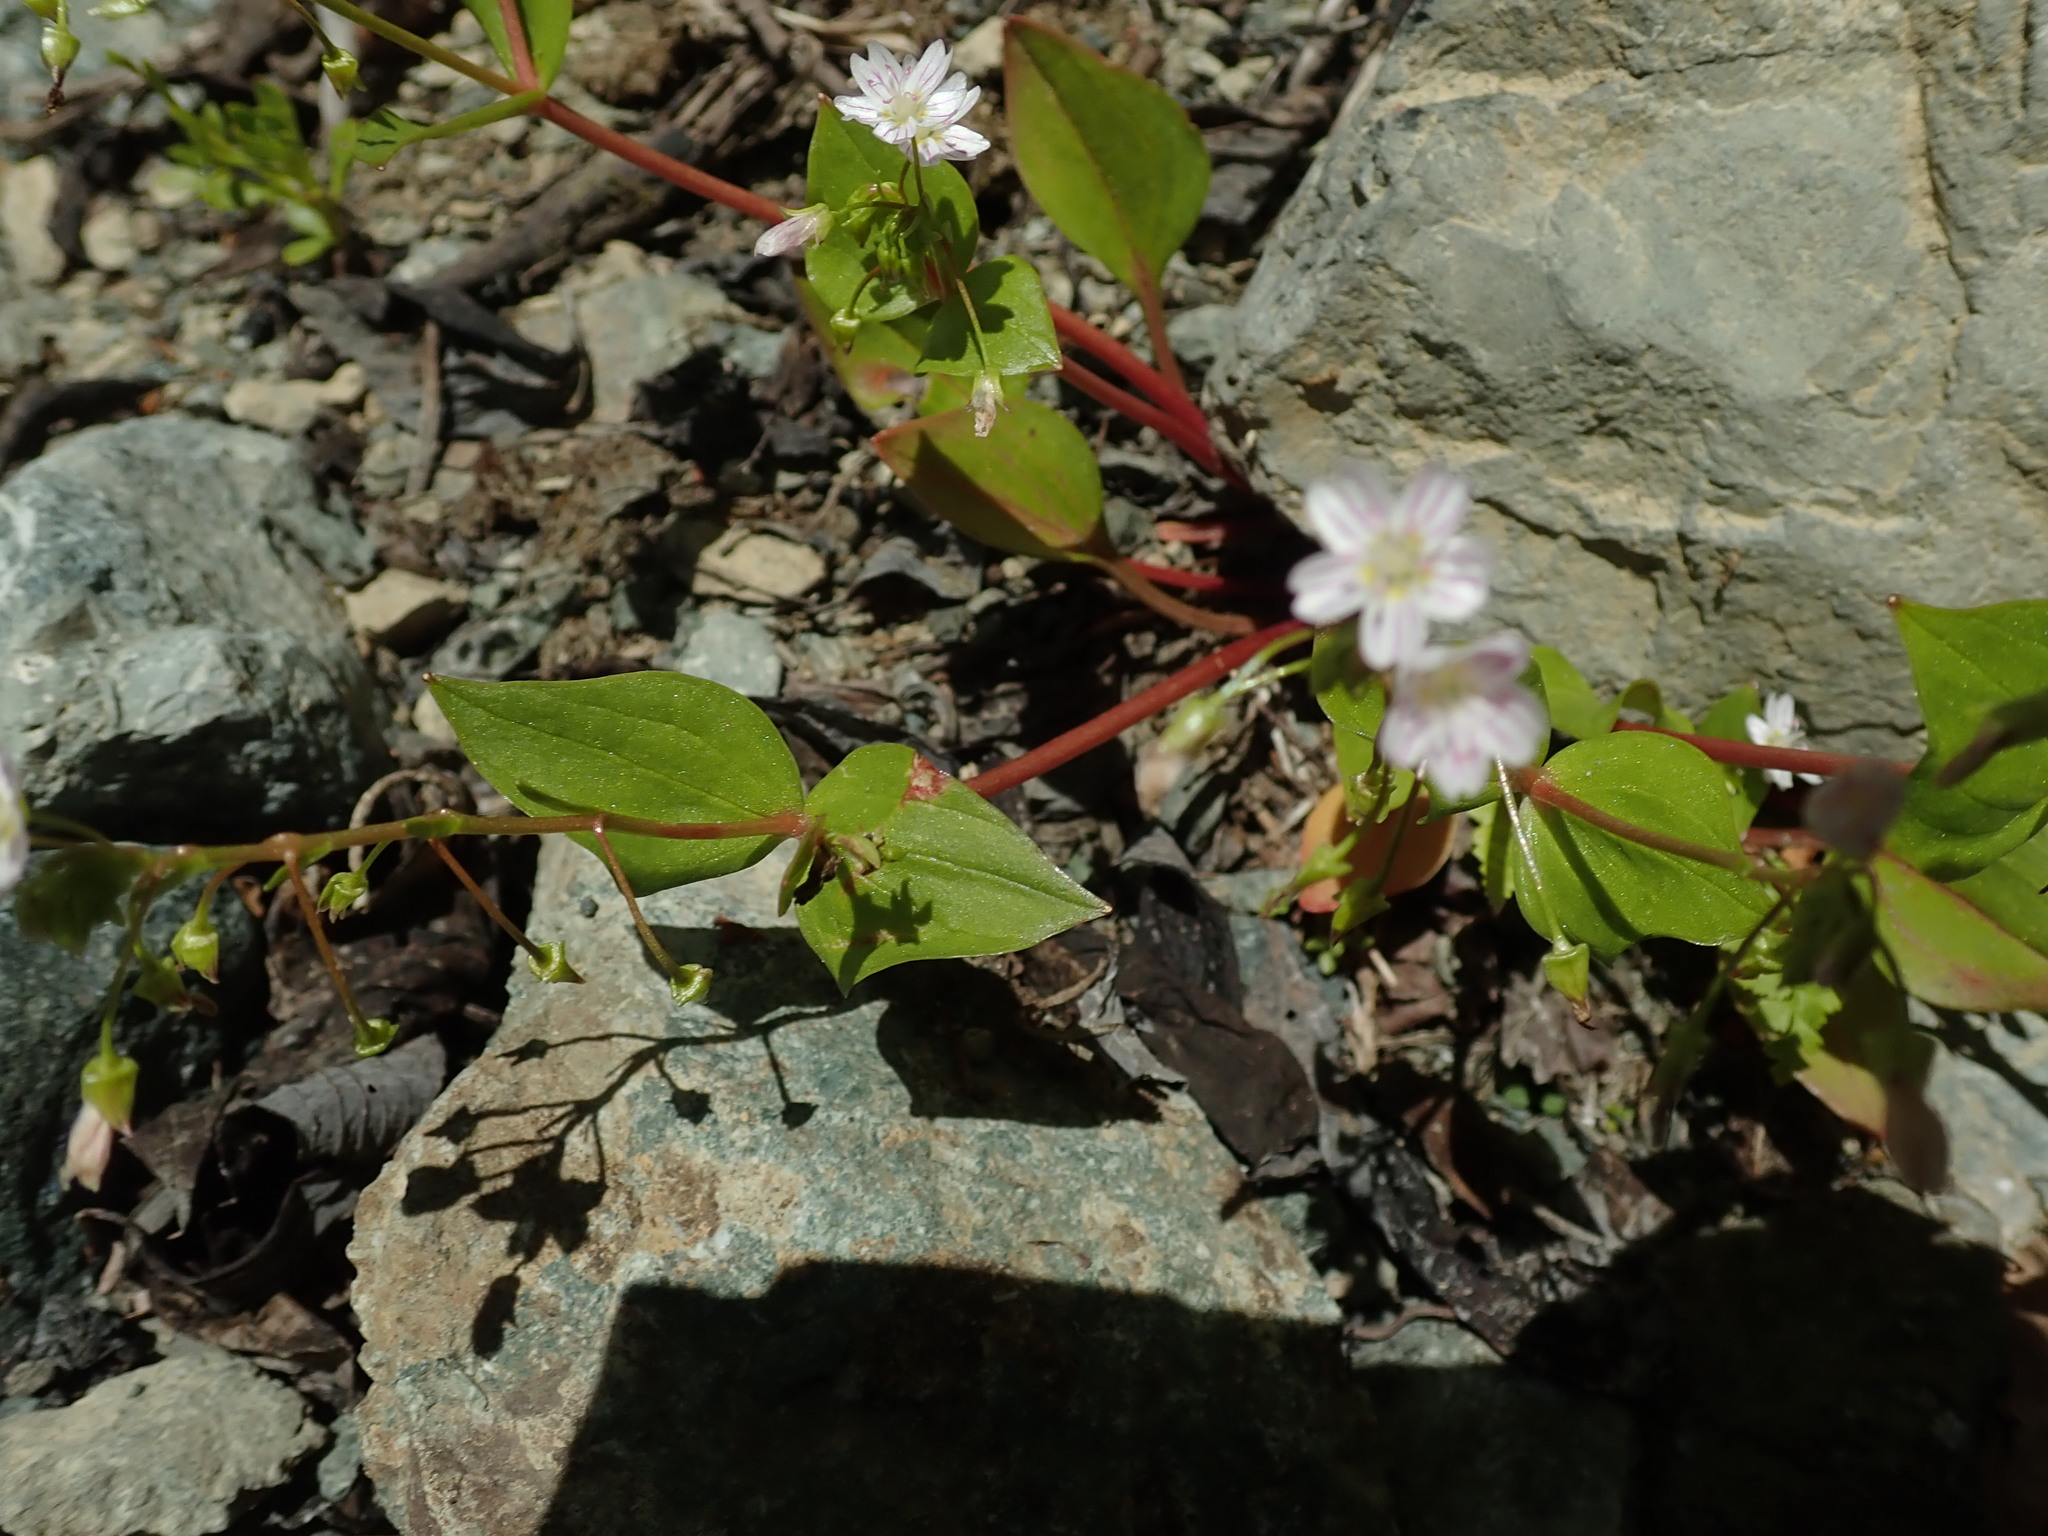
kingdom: Plantae
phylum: Tracheophyta
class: Magnoliopsida
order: Caryophyllales
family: Montiaceae
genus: Claytonia
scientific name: Claytonia sibirica
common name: Pink purslane
